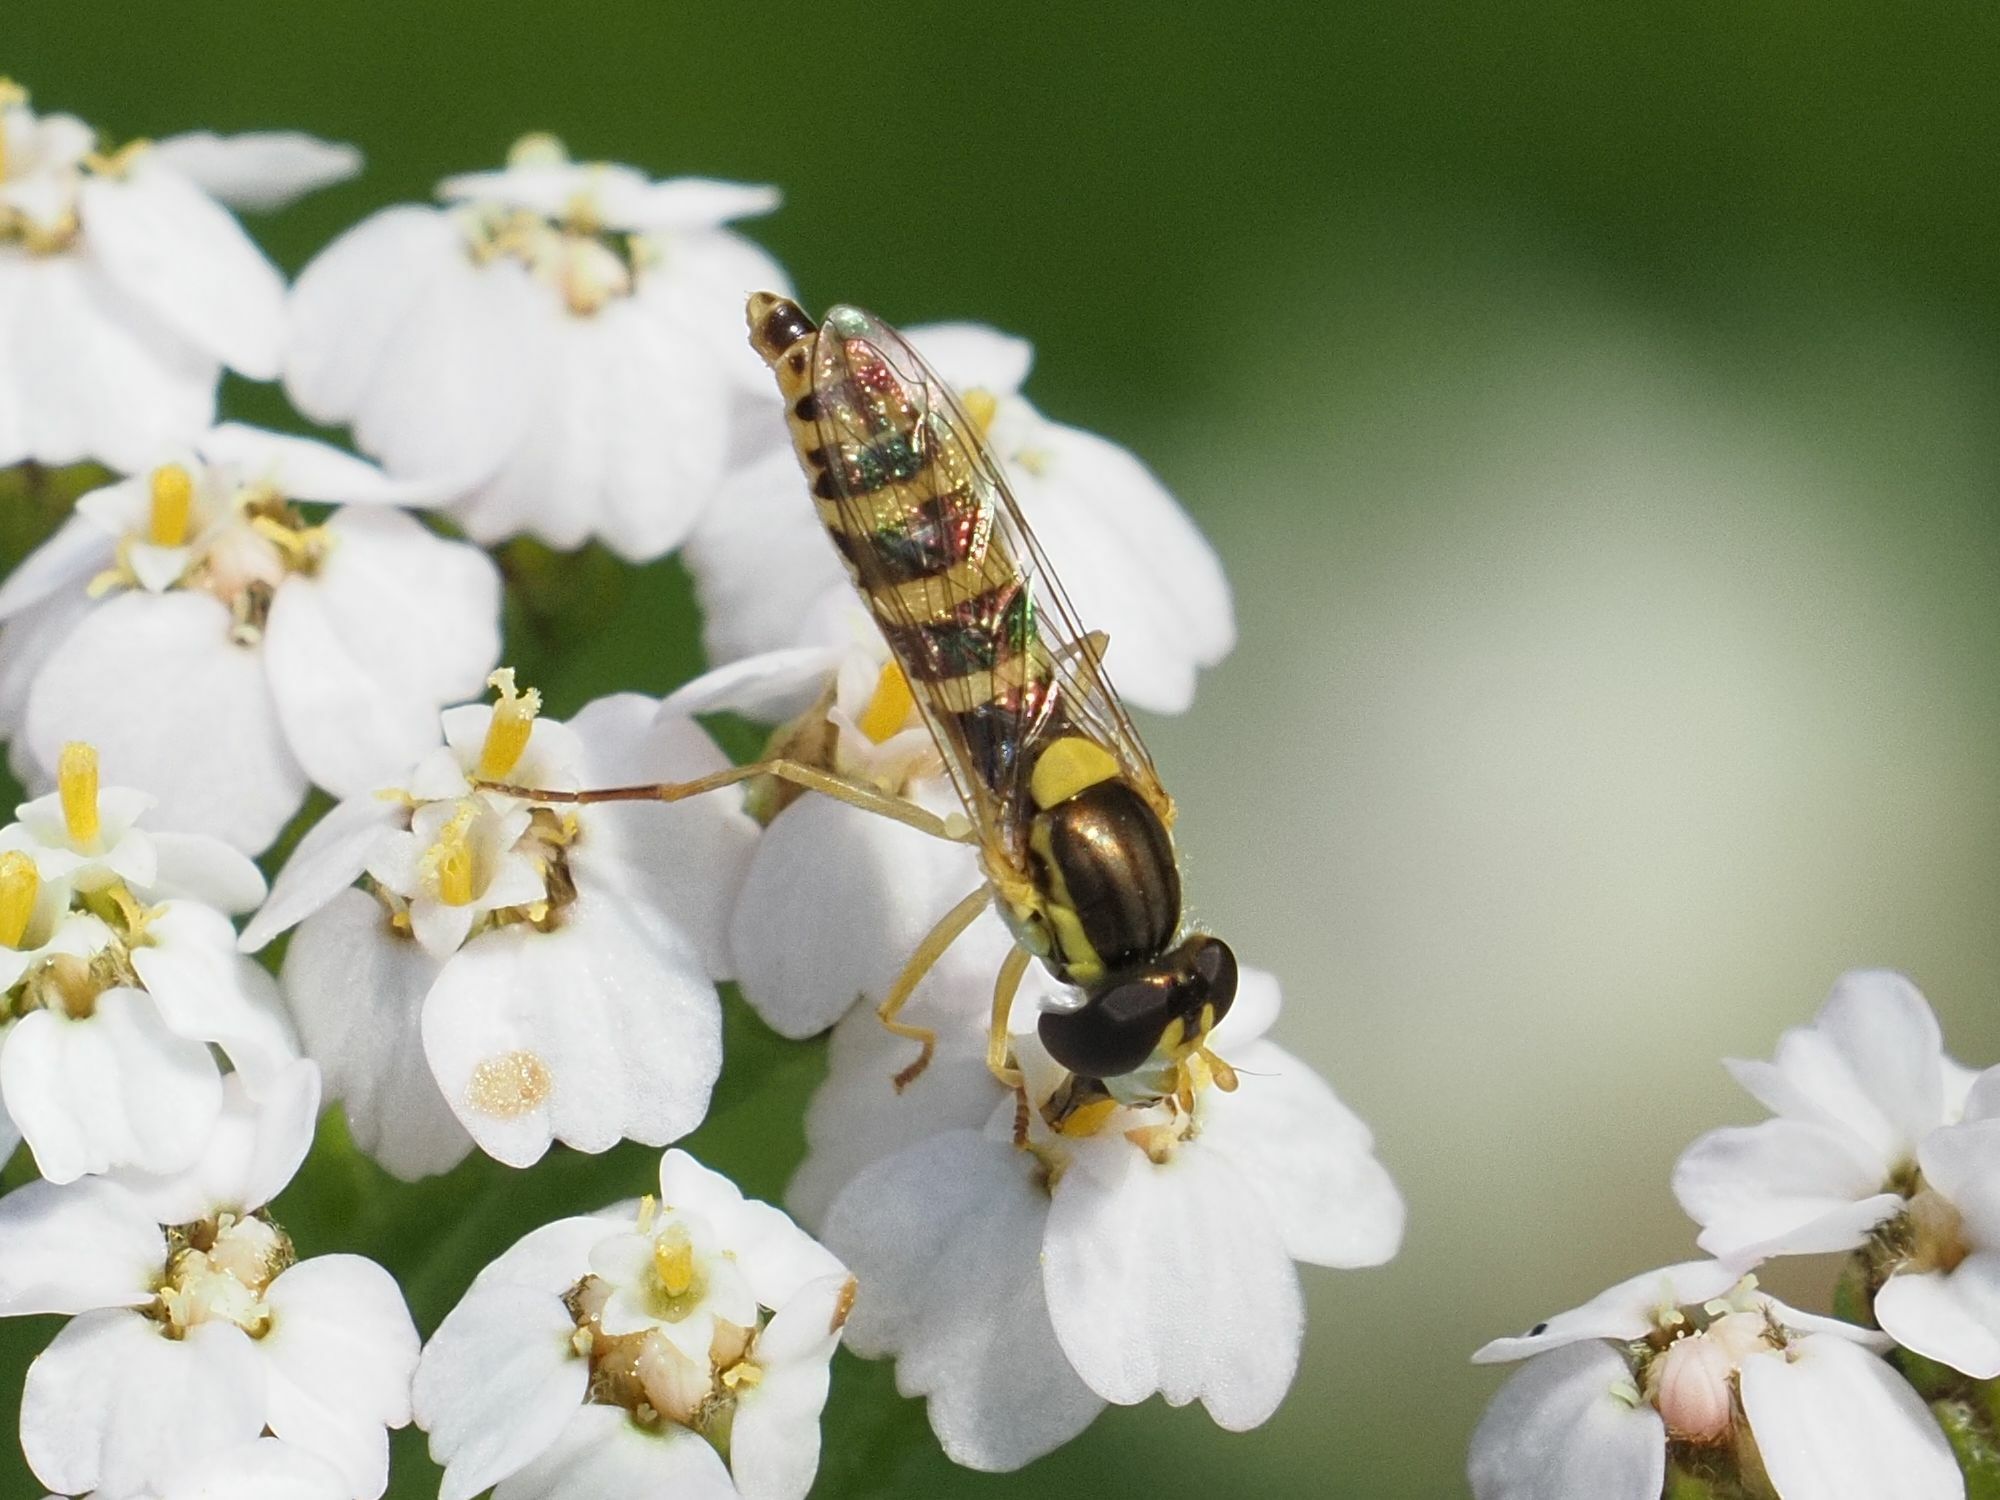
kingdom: Animalia
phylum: Arthropoda
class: Insecta
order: Diptera
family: Syrphidae
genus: Sphaerophoria
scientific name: Sphaerophoria
